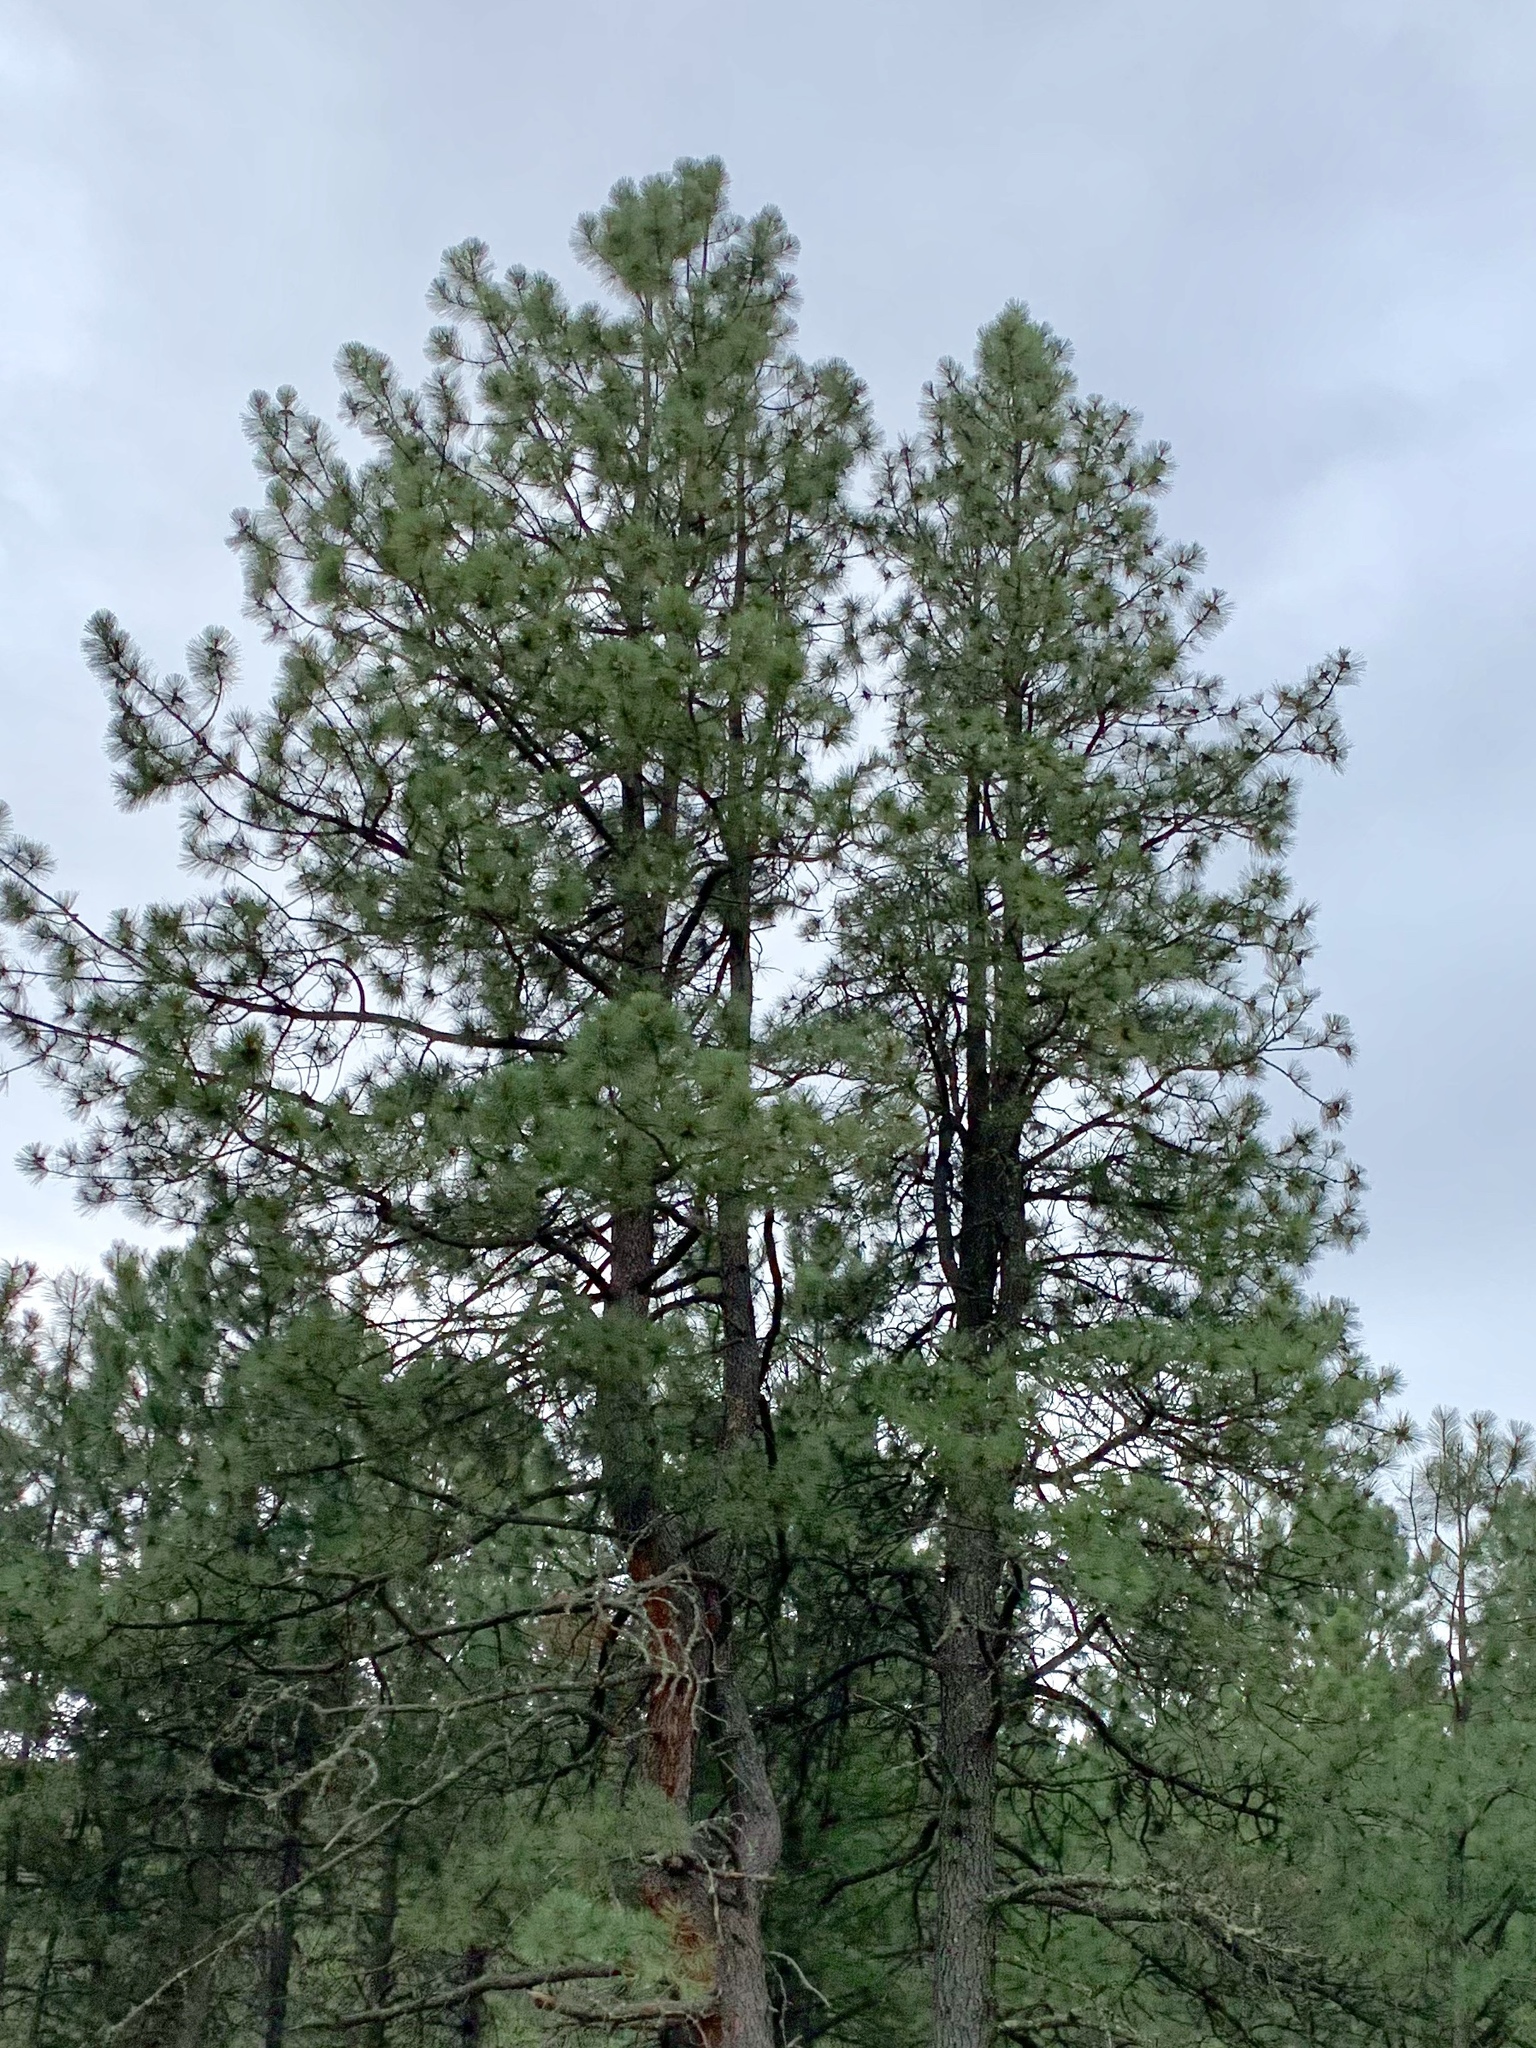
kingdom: Plantae
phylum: Tracheophyta
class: Pinopsida
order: Pinales
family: Pinaceae
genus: Pinus
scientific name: Pinus ponderosa
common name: Western yellow-pine
